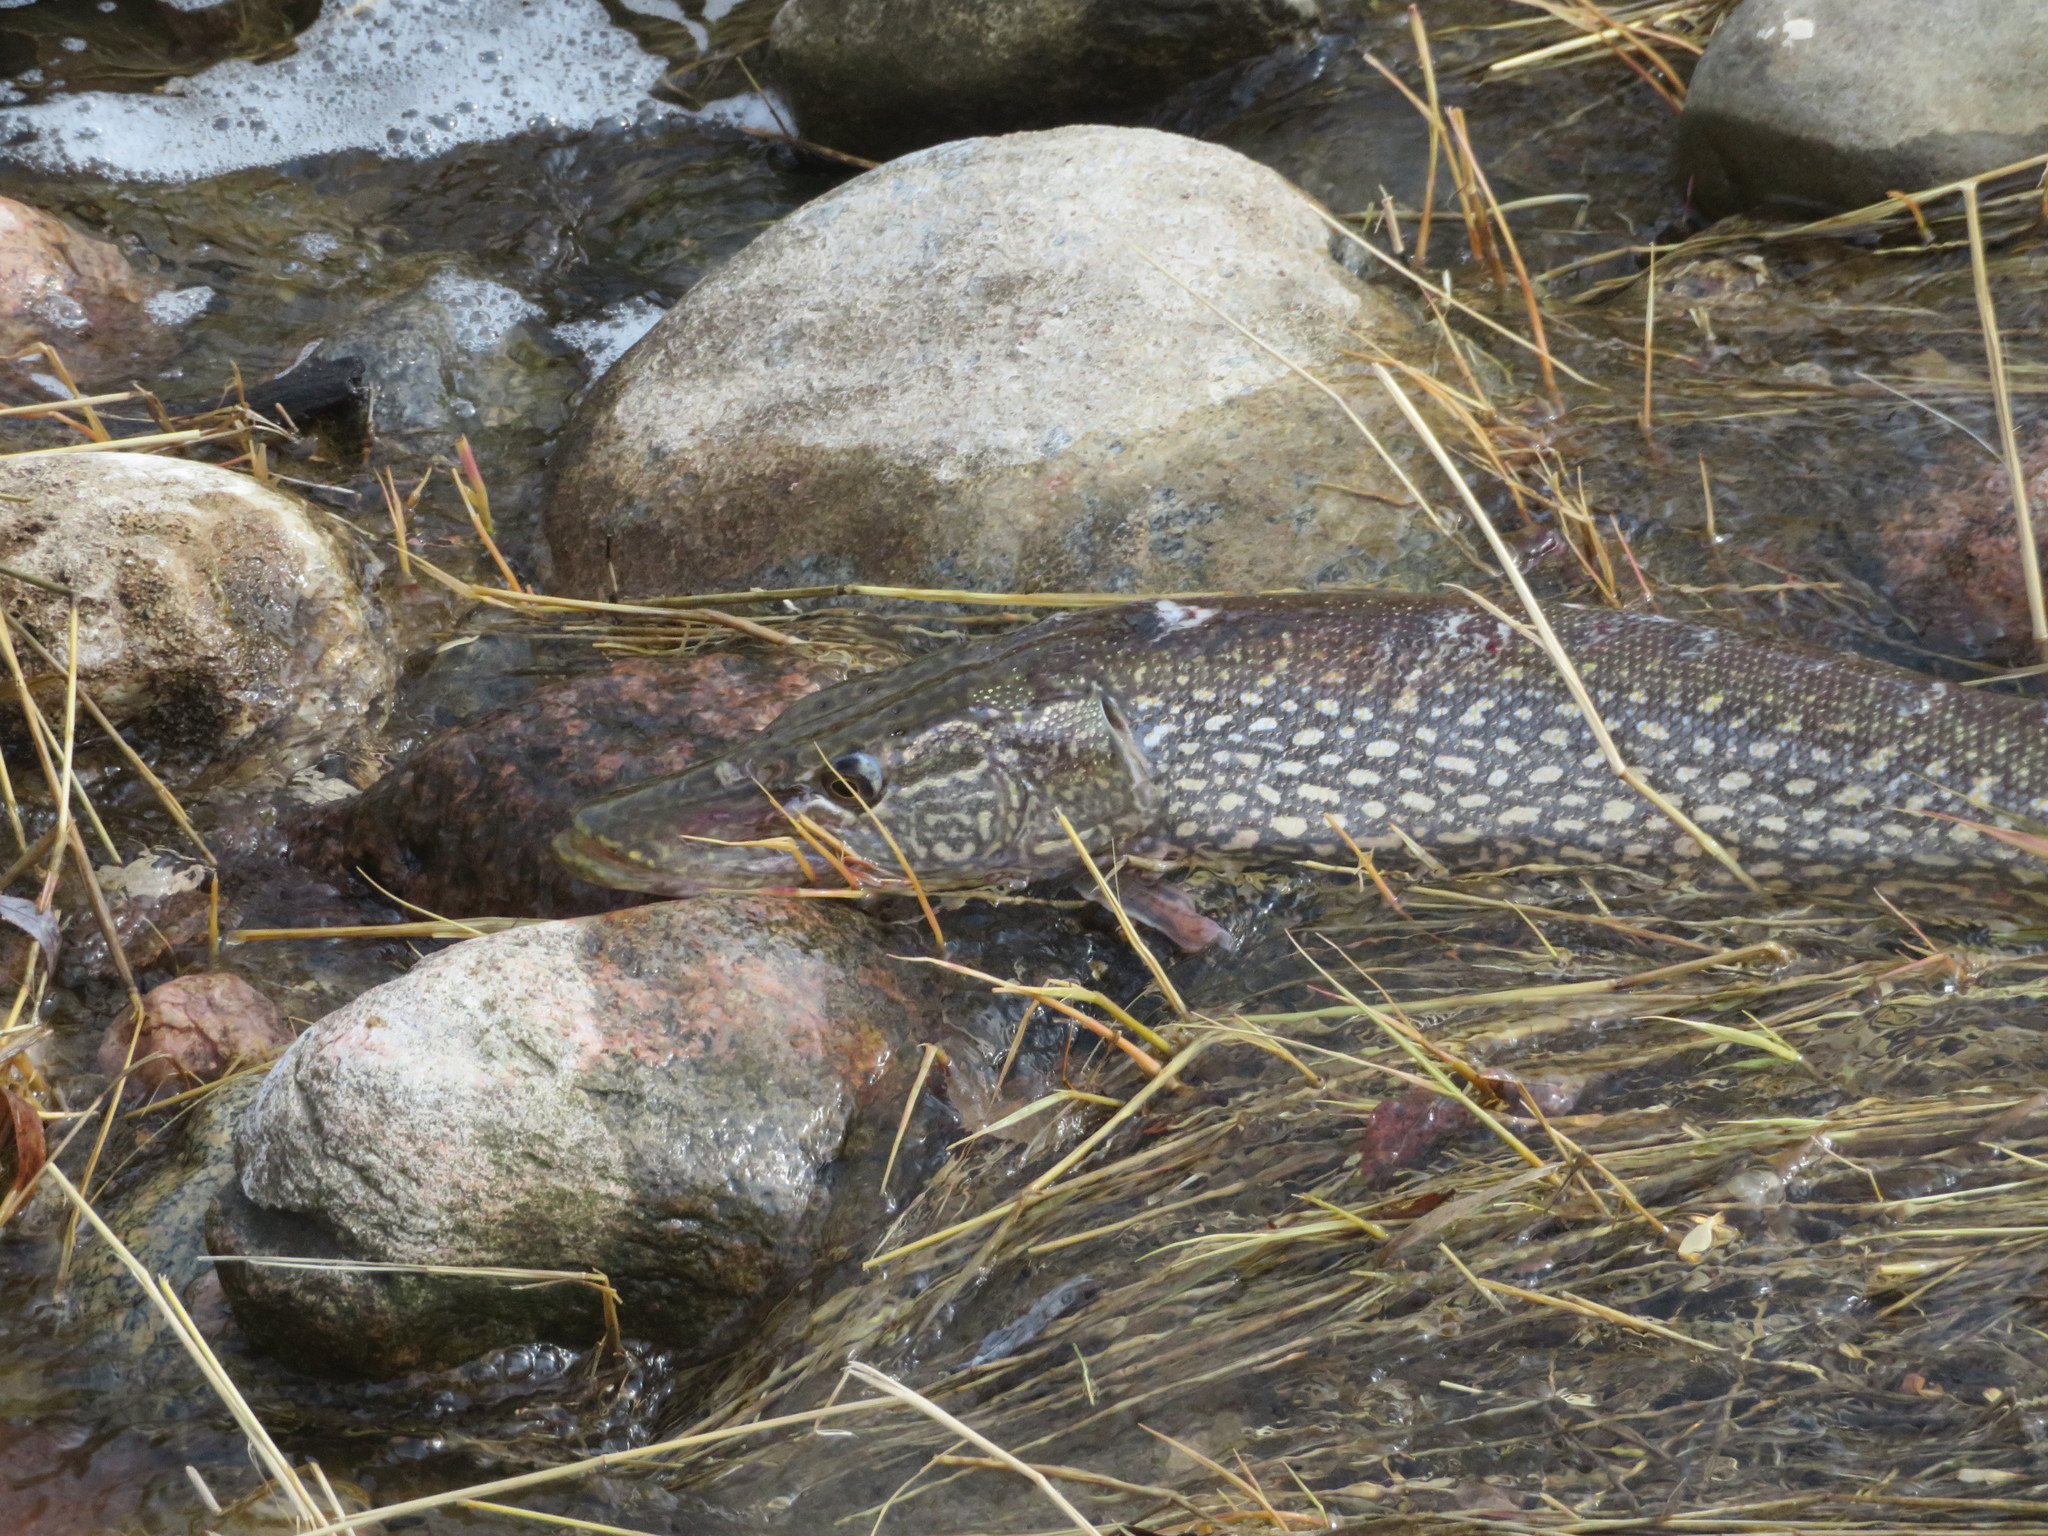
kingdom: Animalia
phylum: Chordata
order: Esociformes
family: Esocidae
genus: Esox
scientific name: Esox lucius
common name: Northern pike
